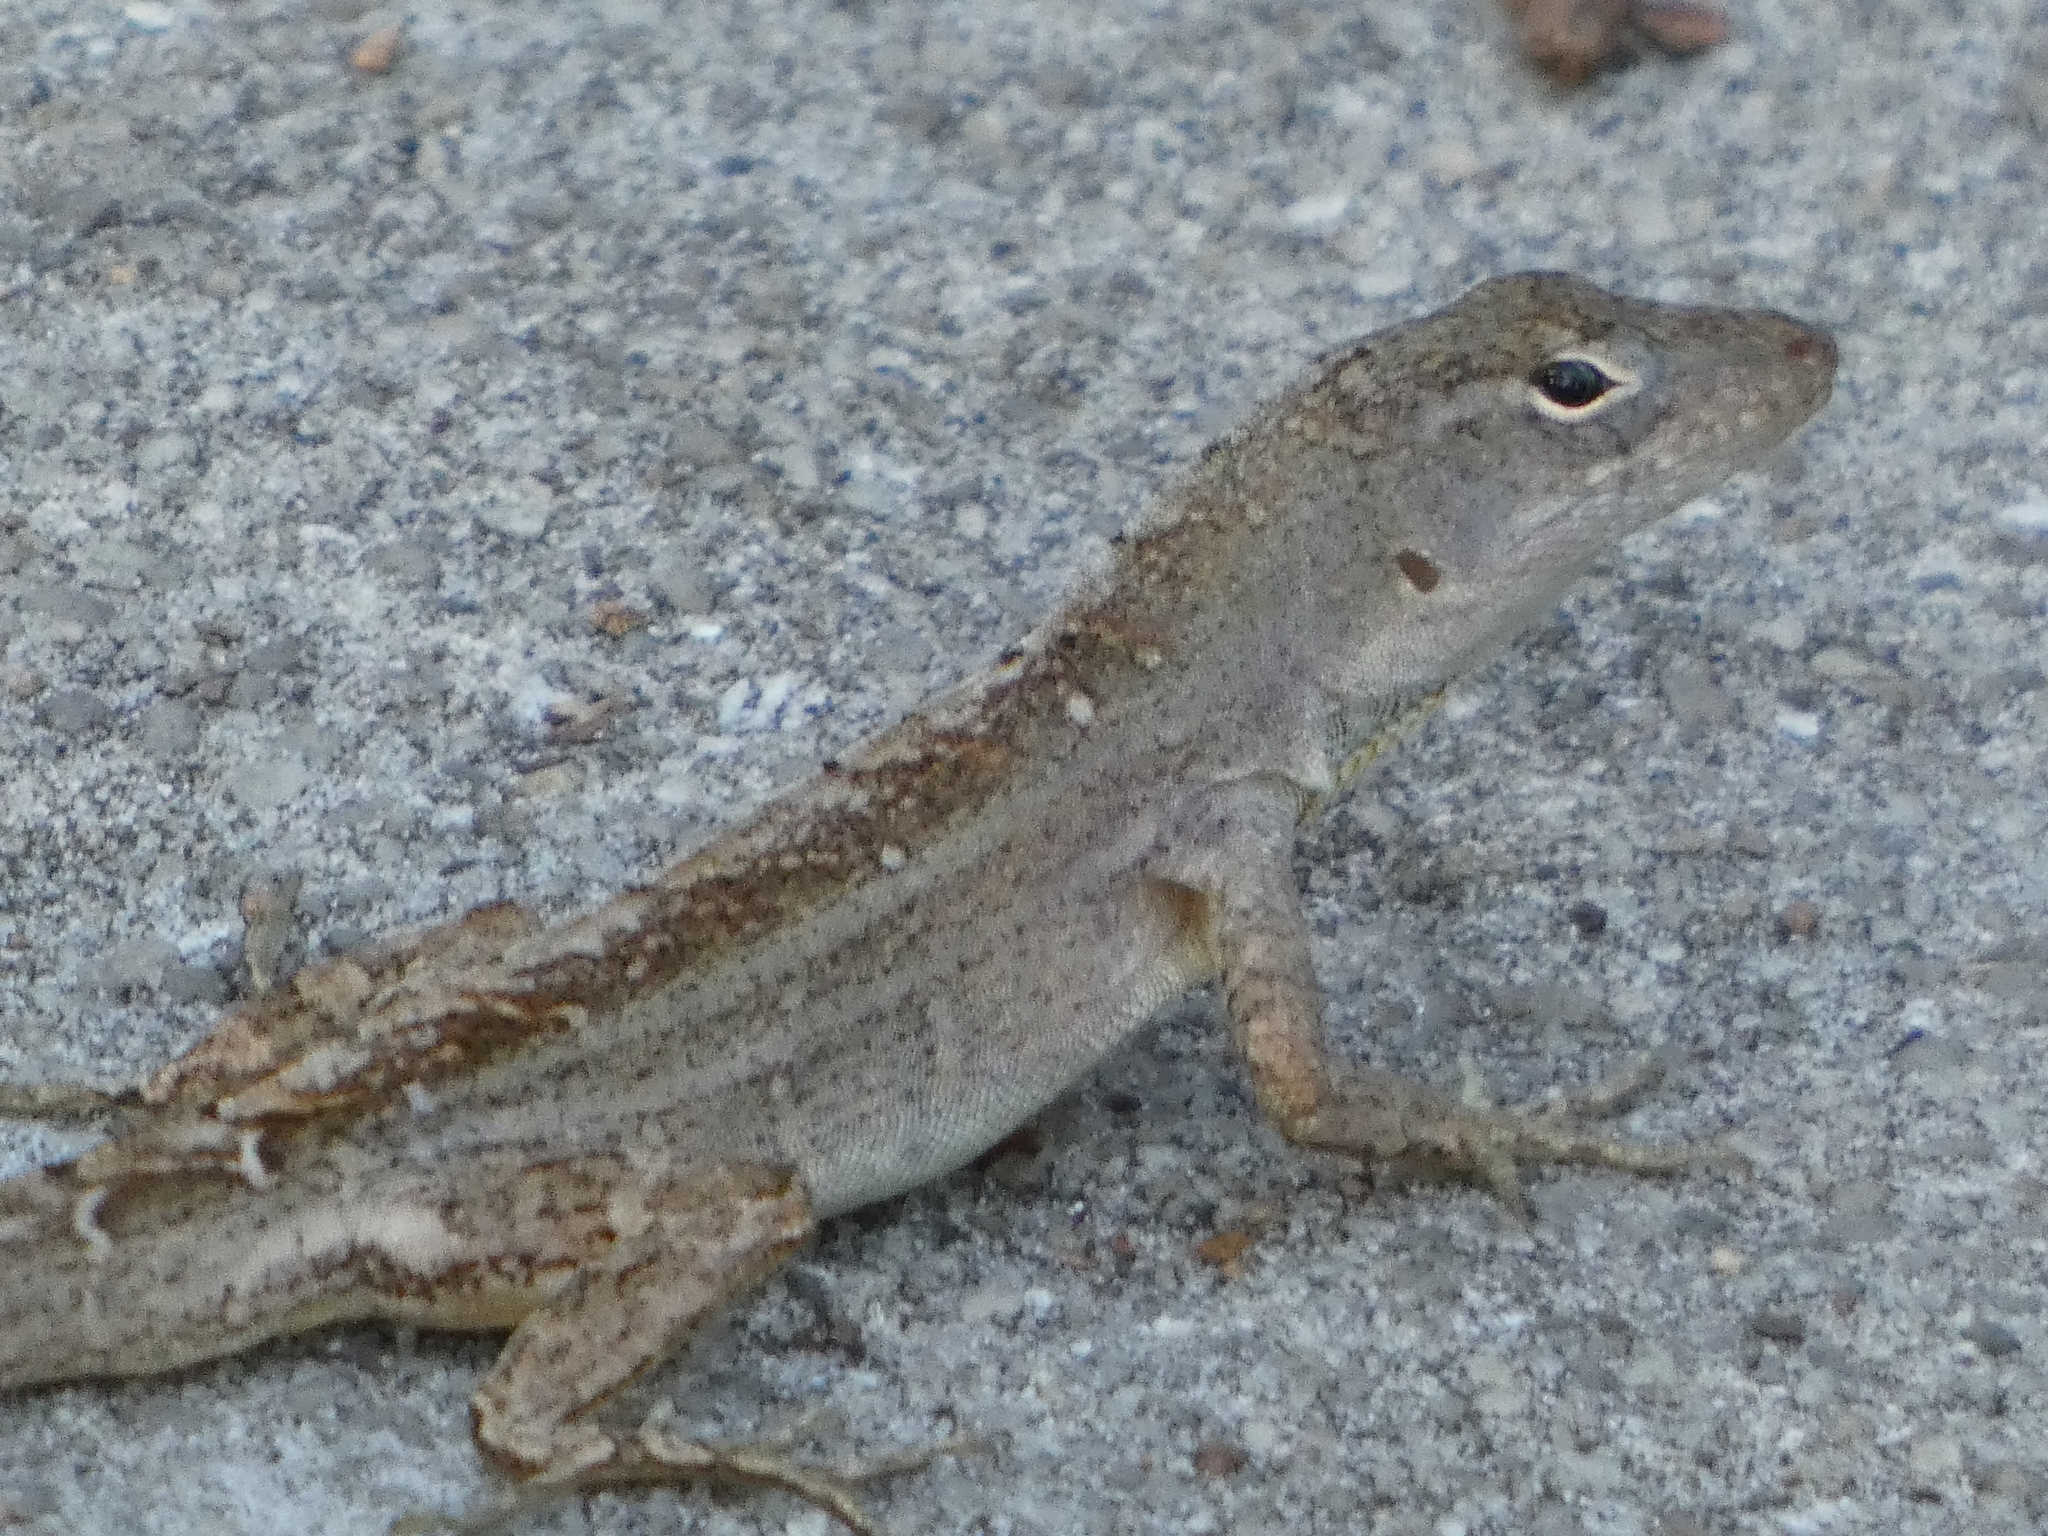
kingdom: Animalia
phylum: Chordata
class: Squamata
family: Dactyloidae
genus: Anolis
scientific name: Anolis sagrei
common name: Brown anole
